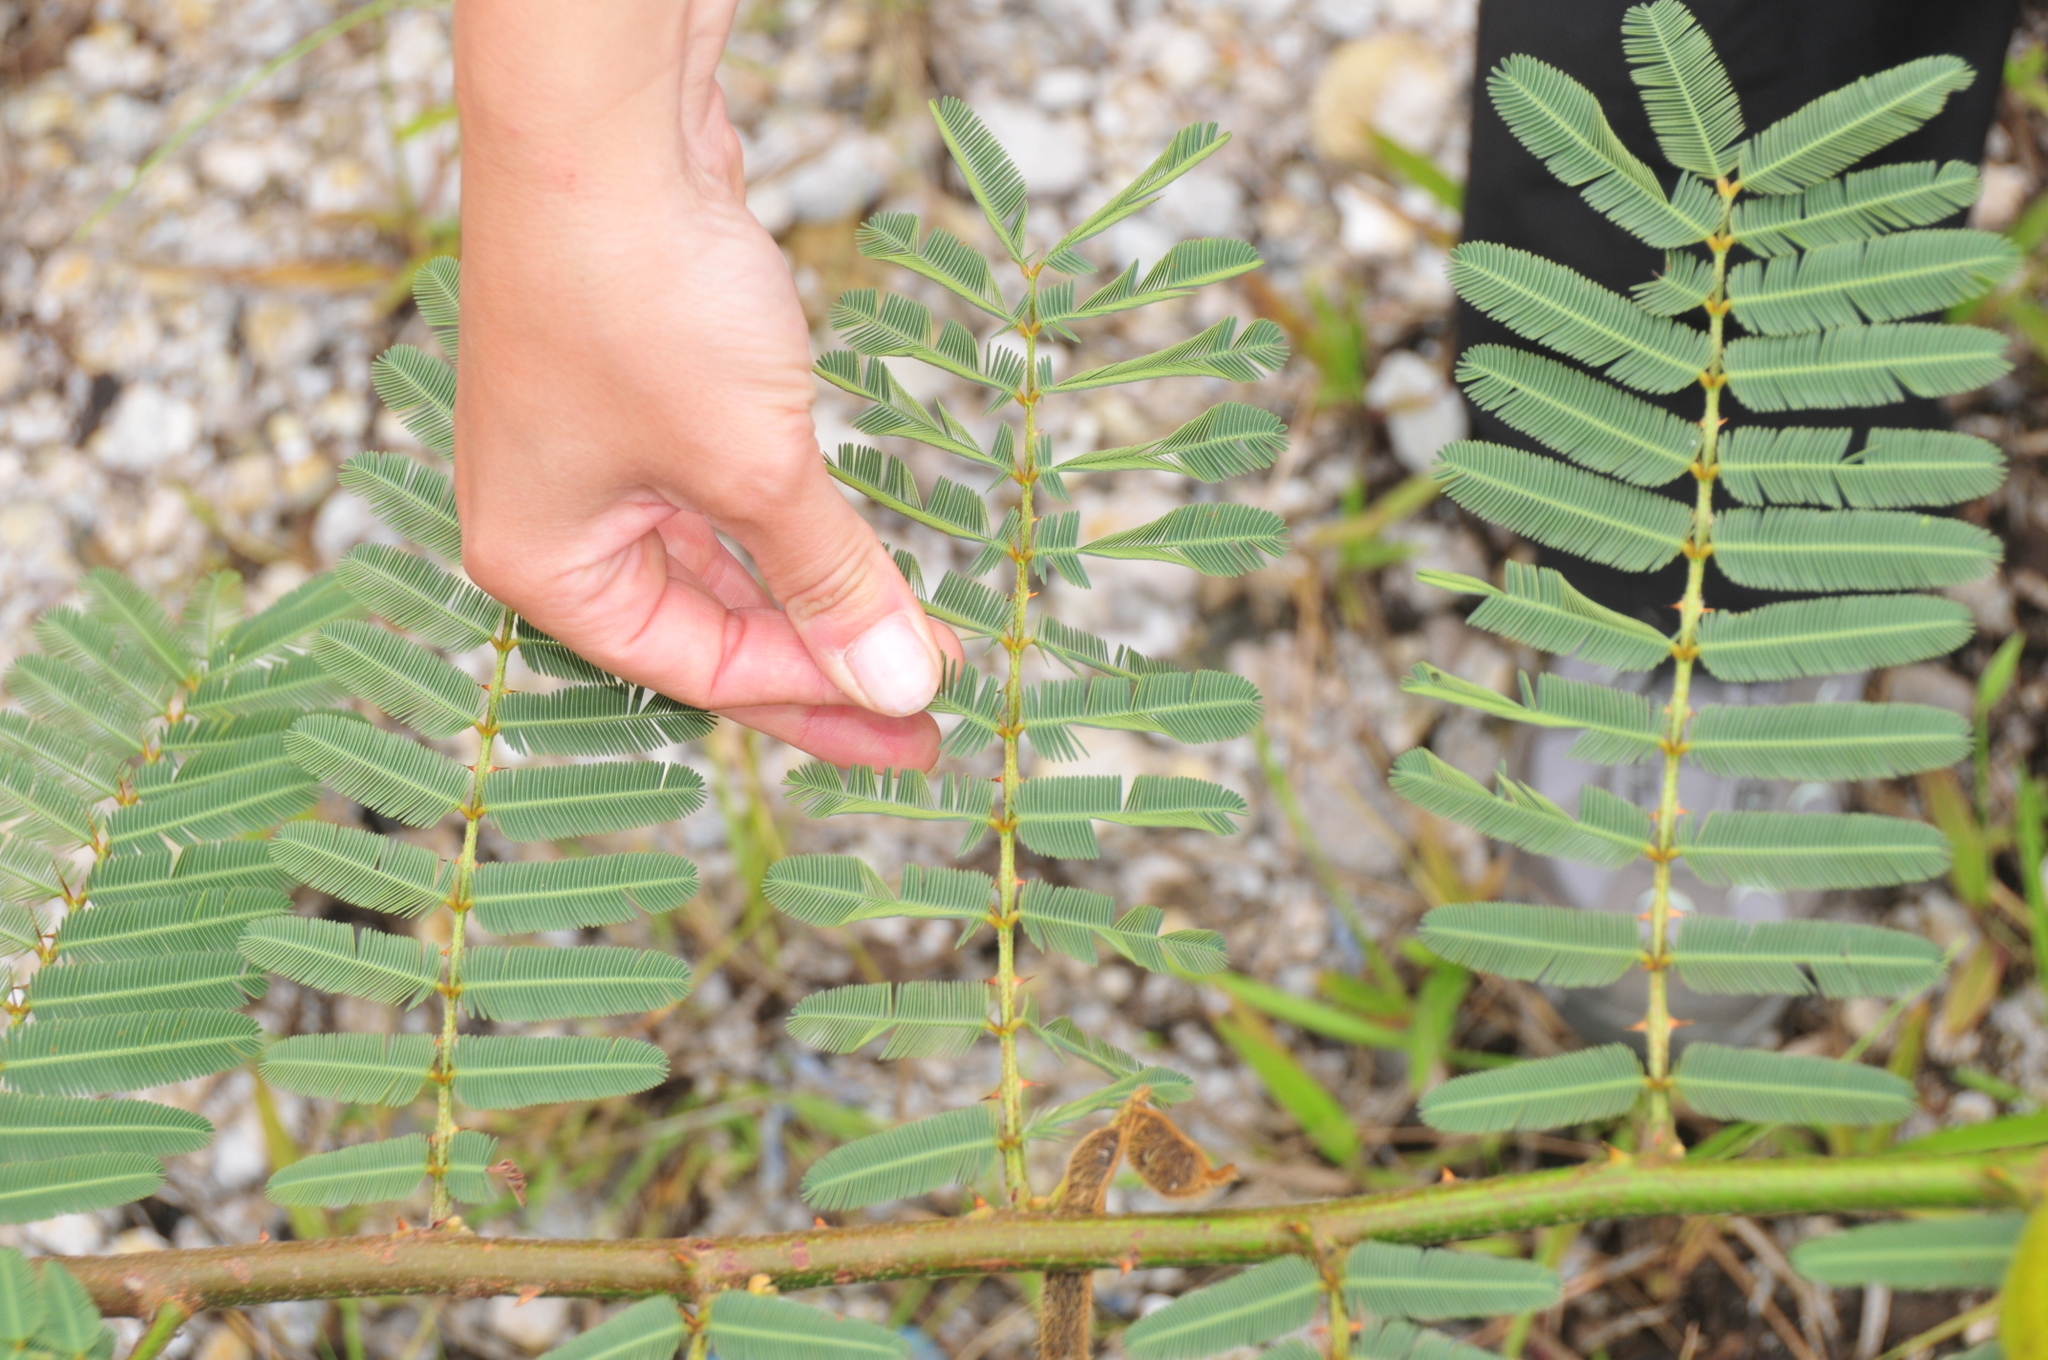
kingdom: Plantae
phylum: Tracheophyta
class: Magnoliopsida
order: Fabales
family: Fabaceae
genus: Mimosa
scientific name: Mimosa pigra
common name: Black mimosa
